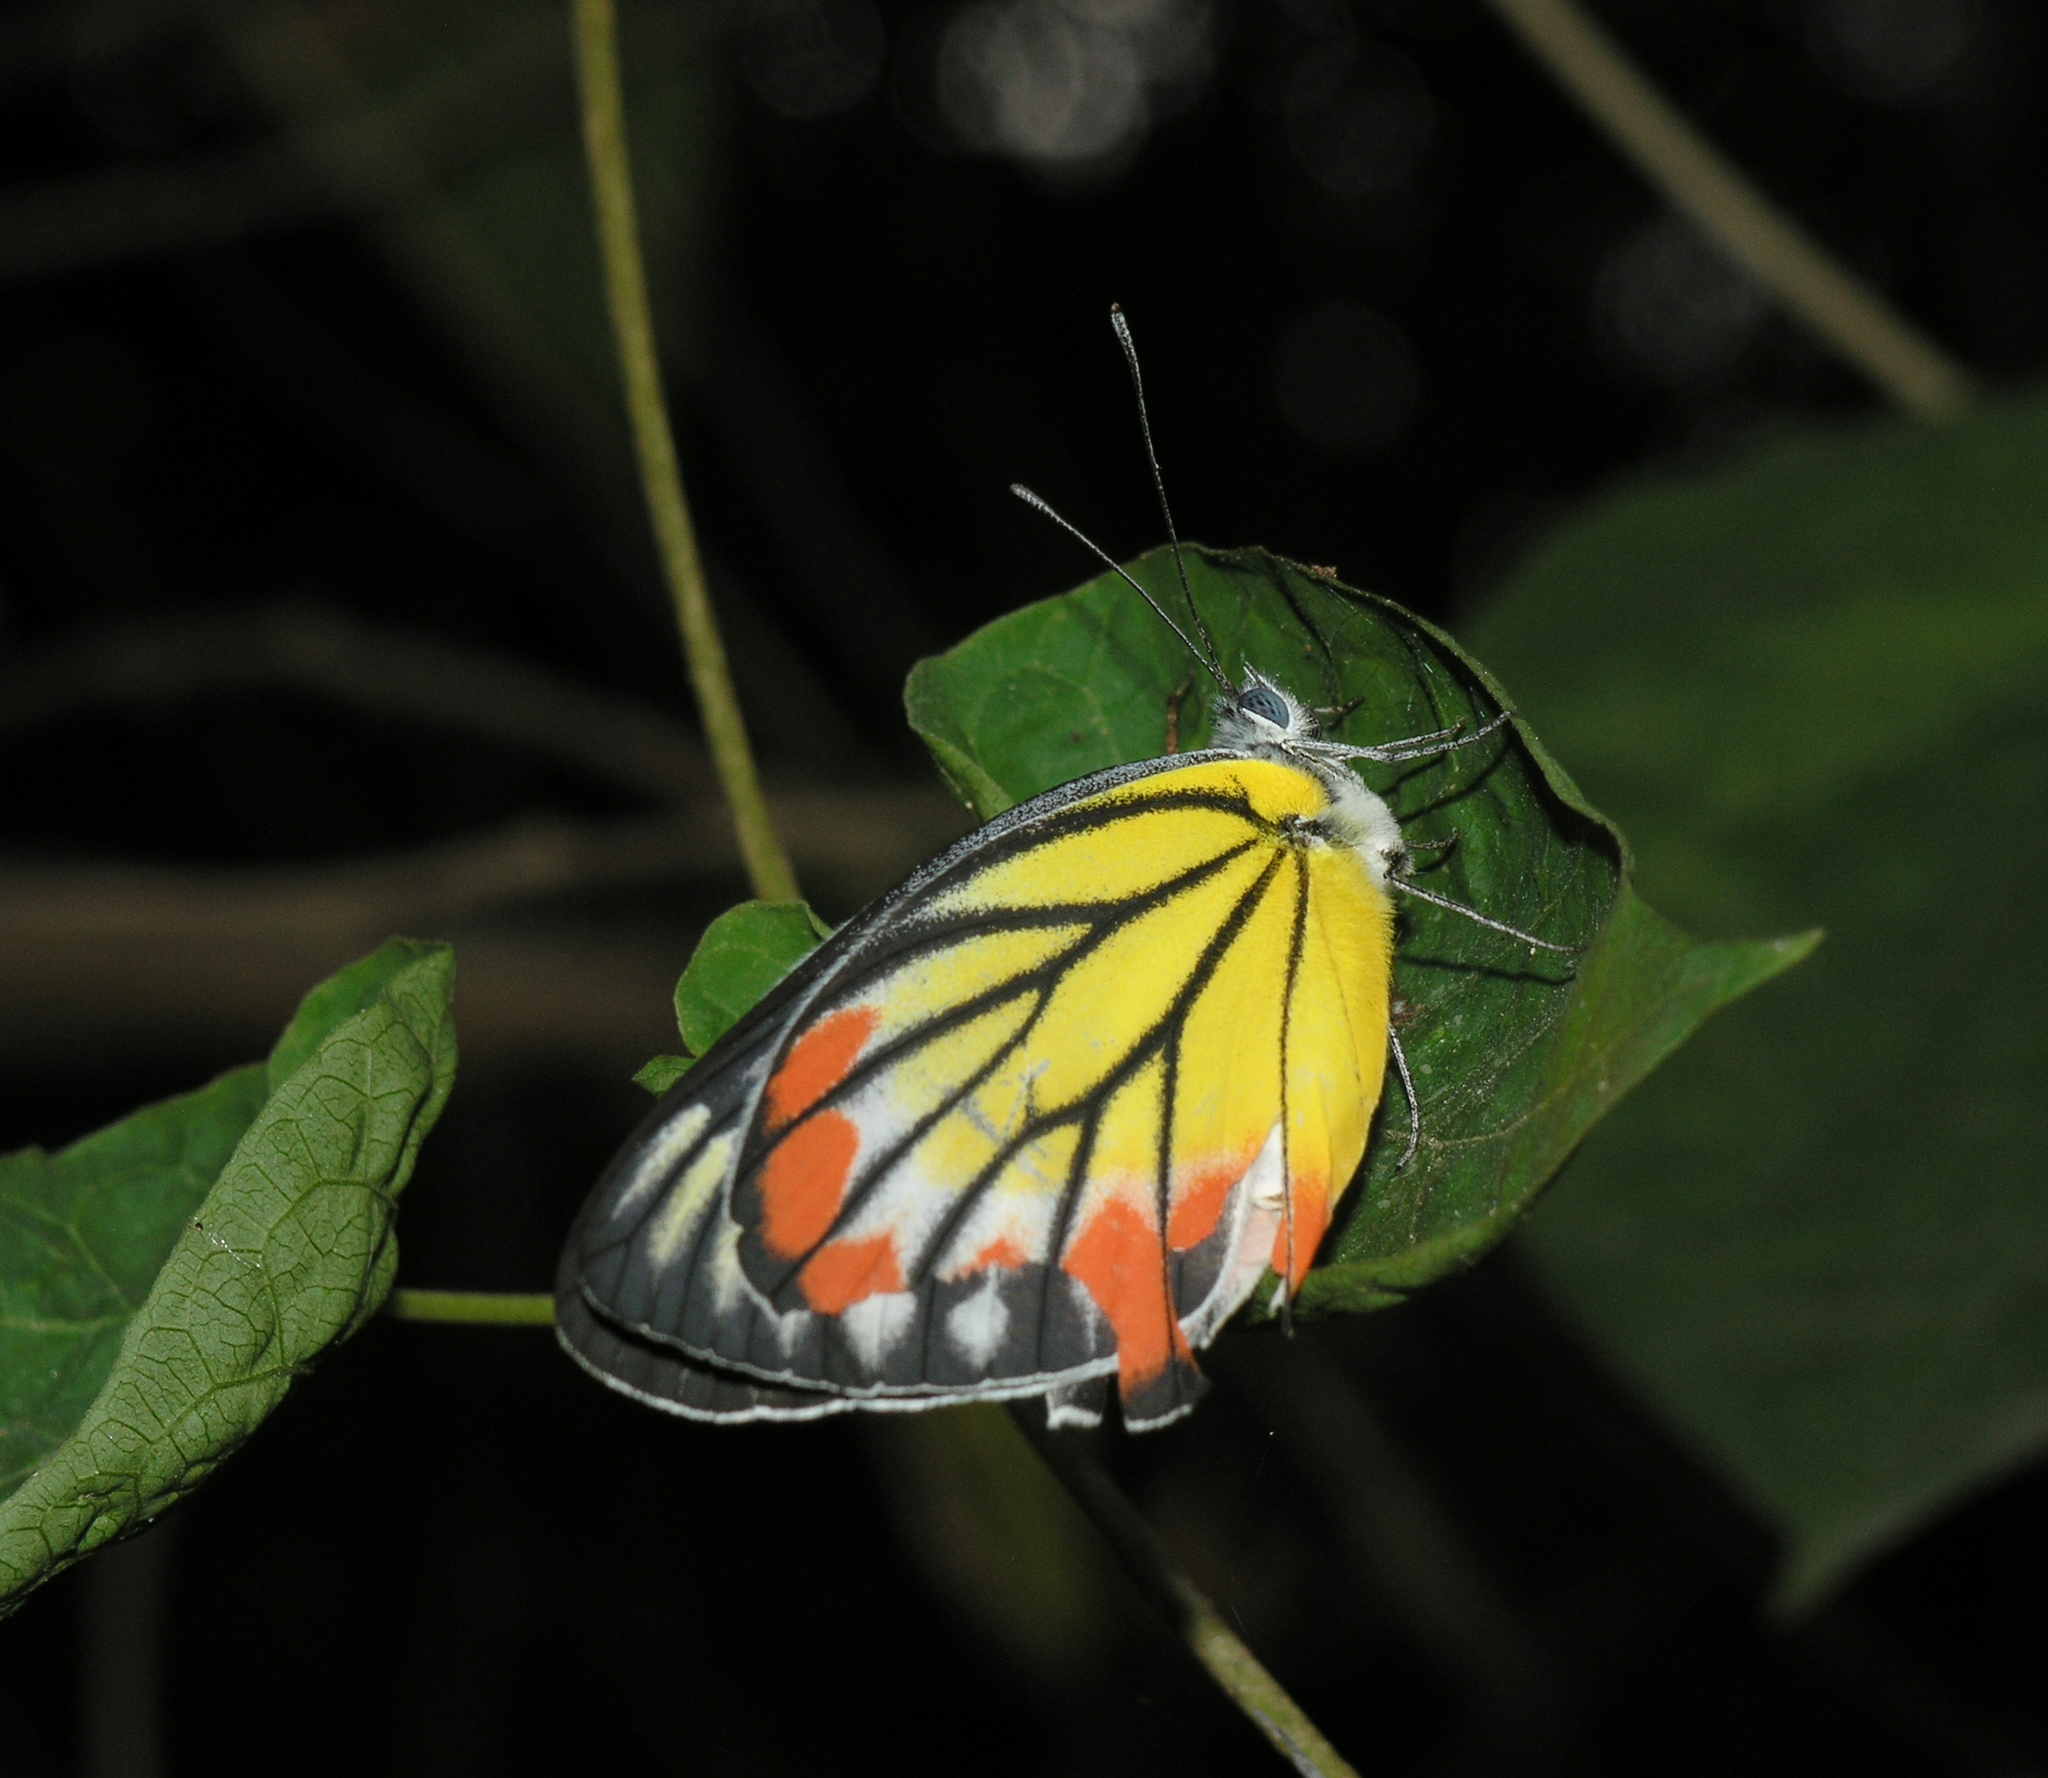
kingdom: Animalia
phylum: Arthropoda
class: Insecta
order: Lepidoptera
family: Pieridae
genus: Delias
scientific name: Delias hyparete
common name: Painted jezebel
